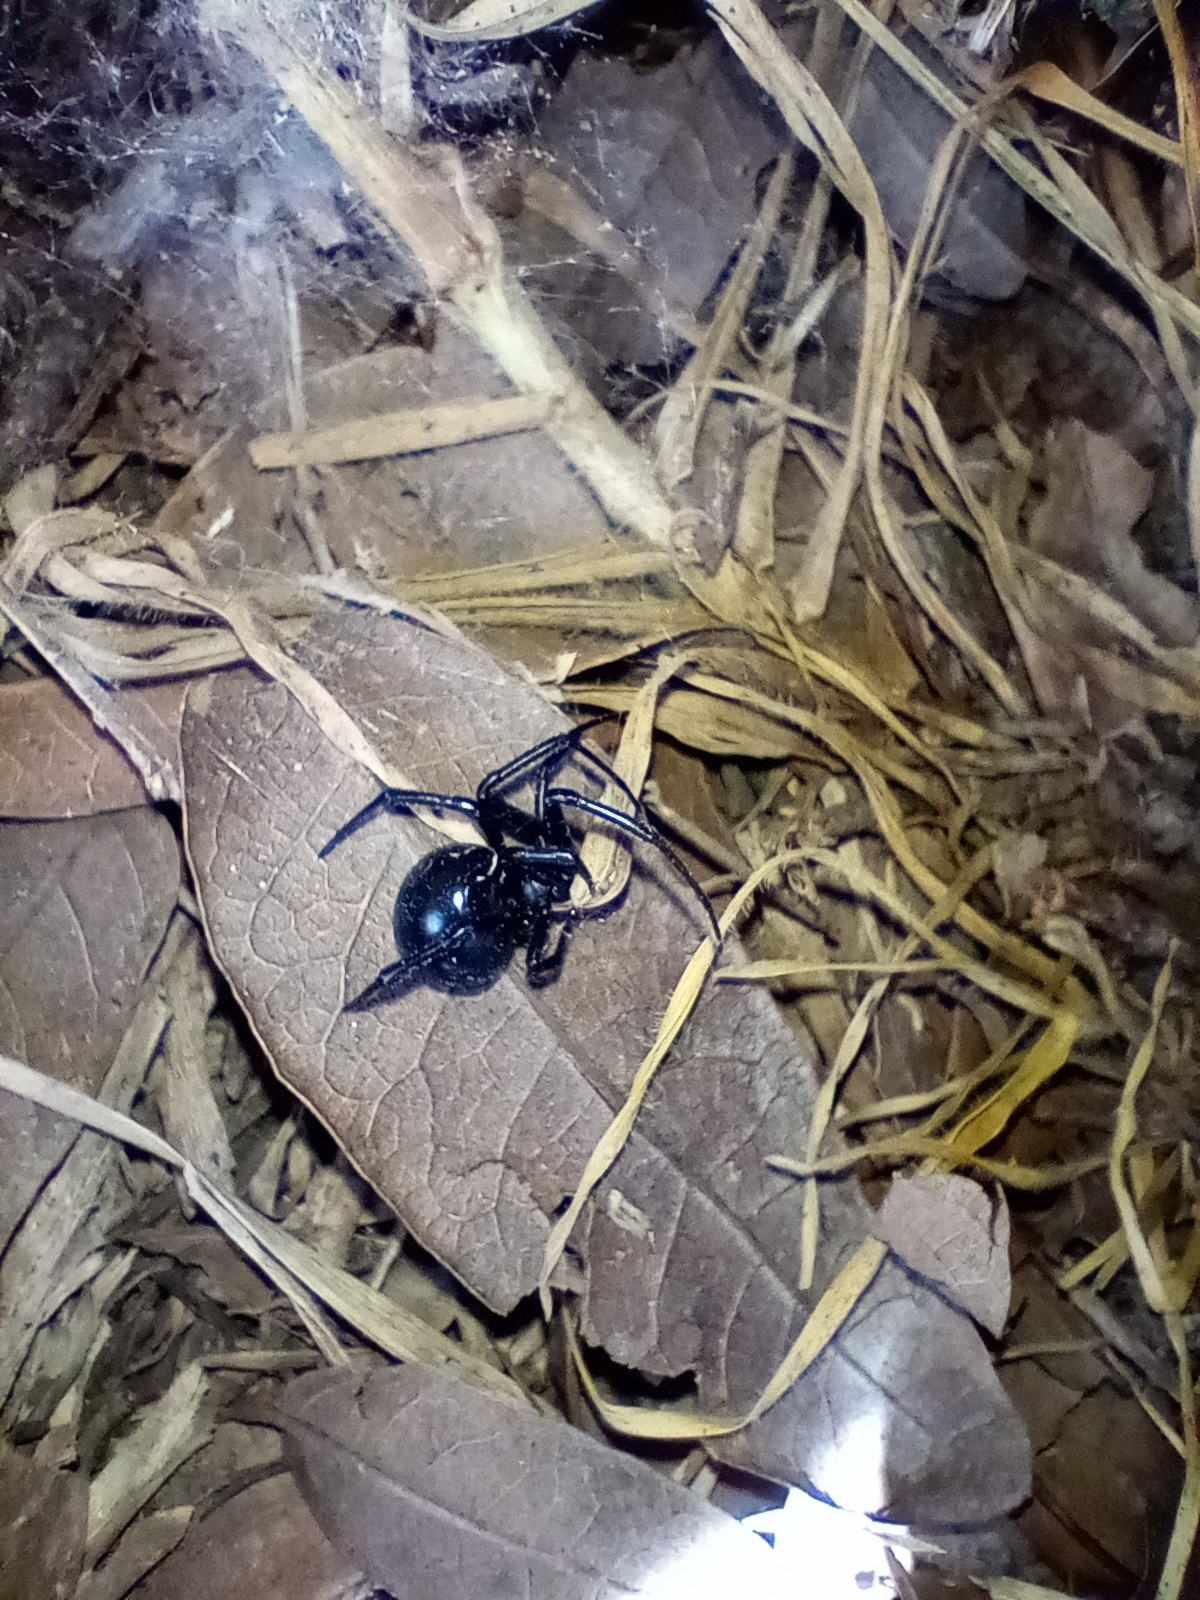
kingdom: Animalia
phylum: Arthropoda
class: Arachnida
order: Araneae
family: Theridiidae
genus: Latrodectus
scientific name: Latrodectus mactans
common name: Cobweb spiders
